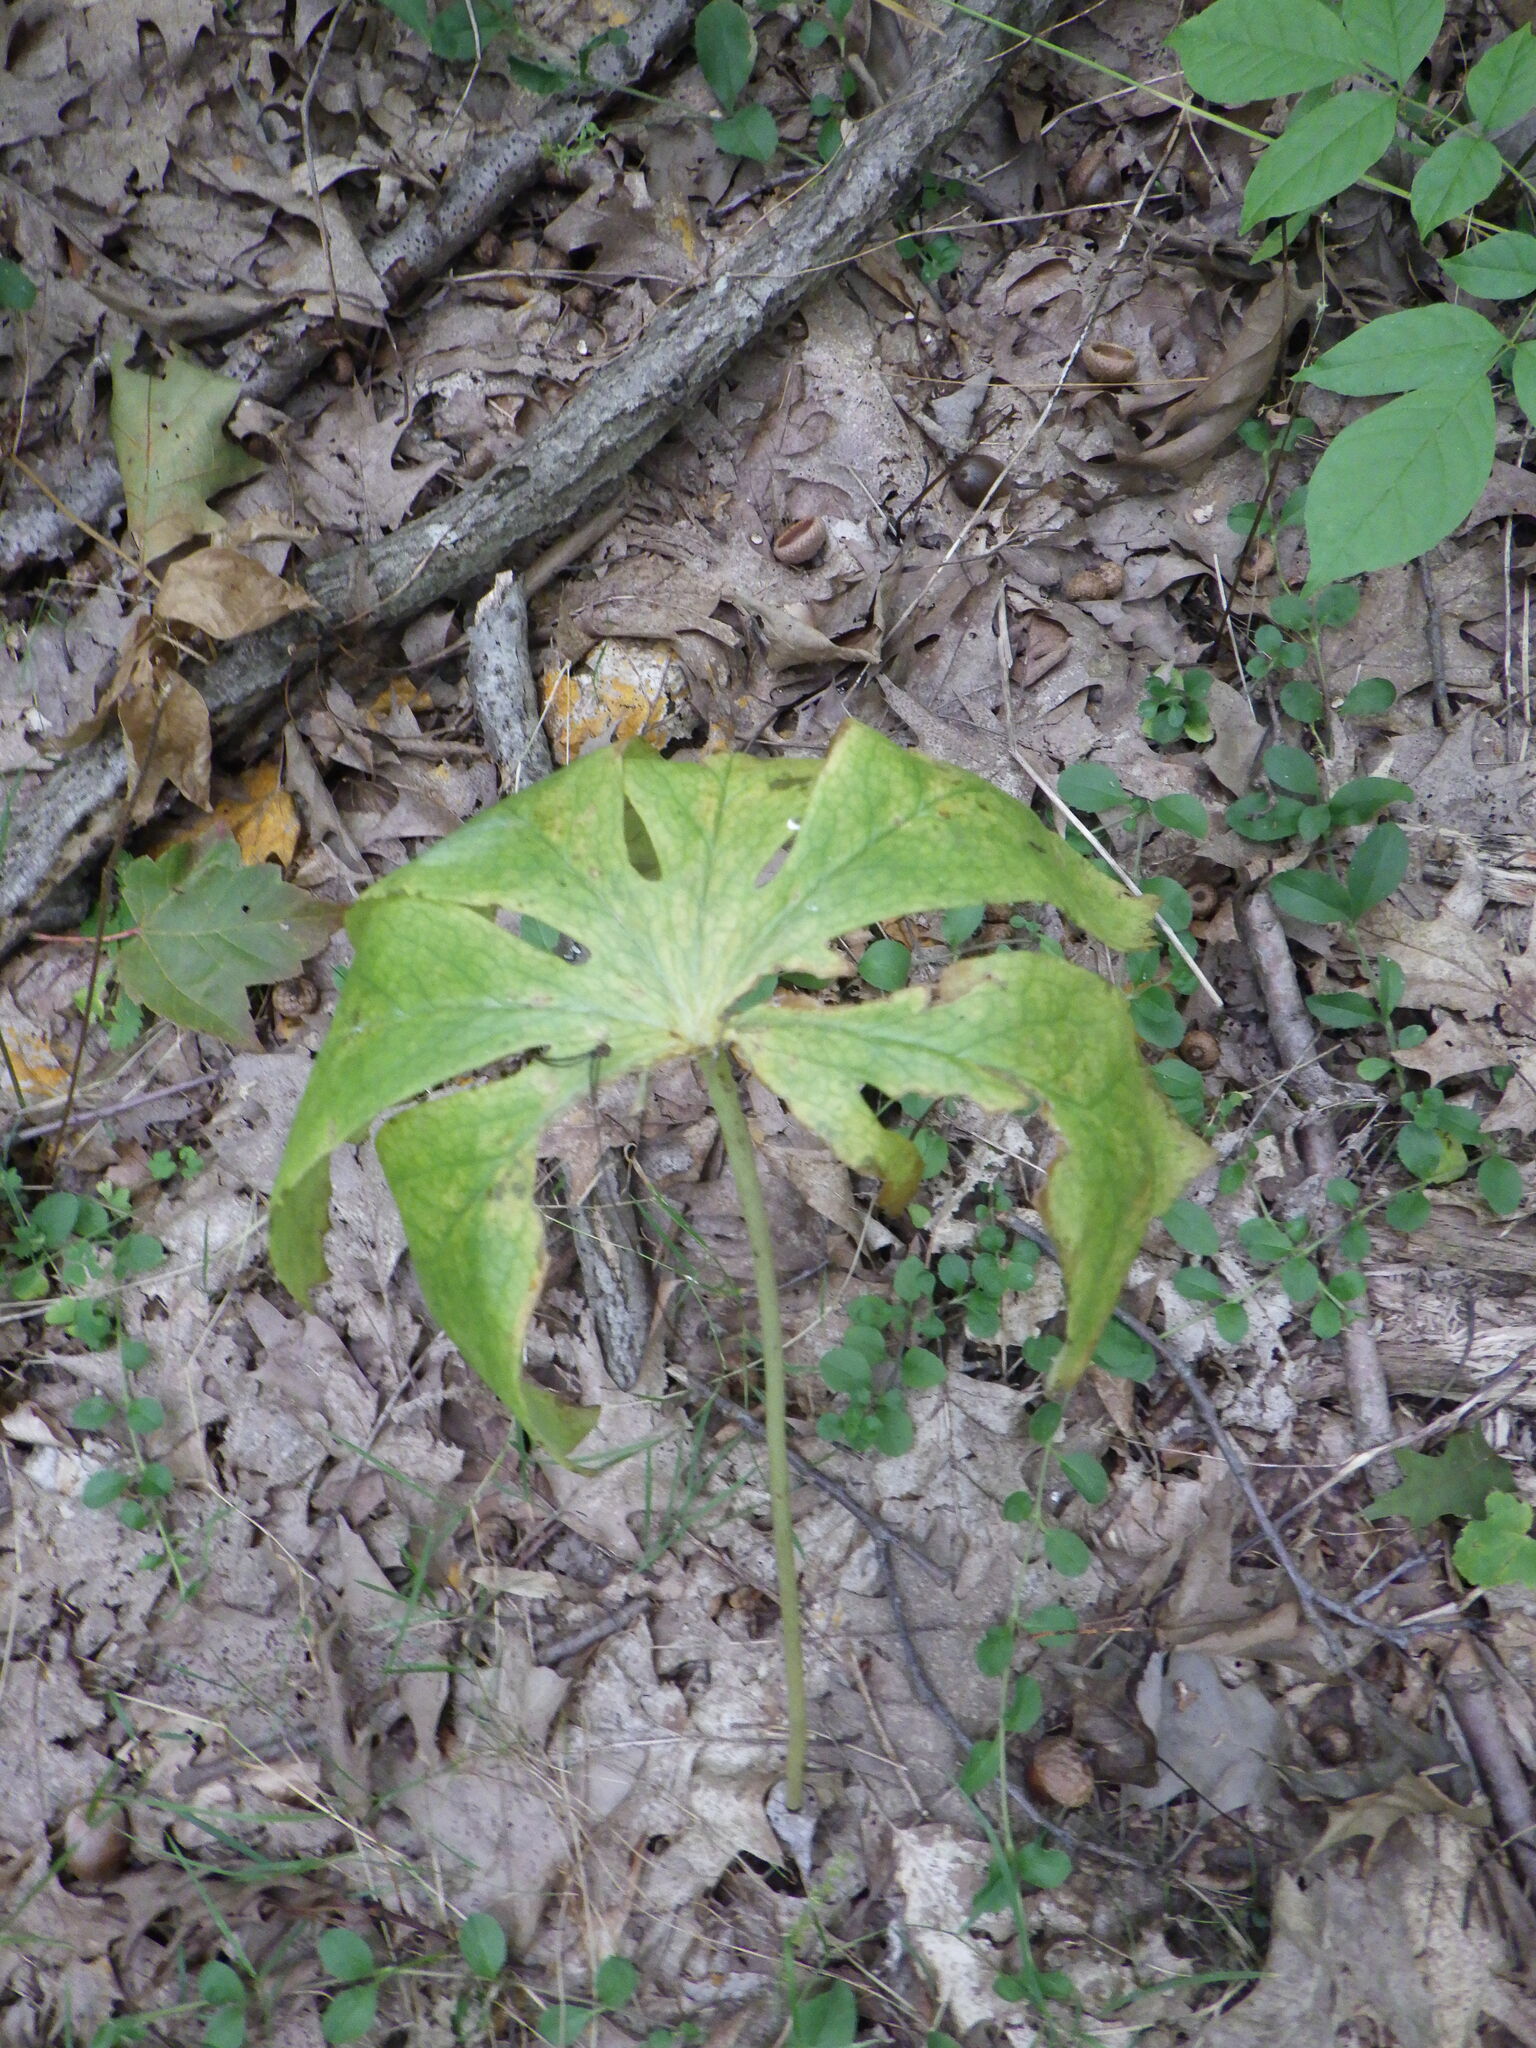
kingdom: Plantae
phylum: Tracheophyta
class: Magnoliopsida
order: Ranunculales
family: Berberidaceae
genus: Podophyllum
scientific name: Podophyllum peltatum
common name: Wild mandrake
